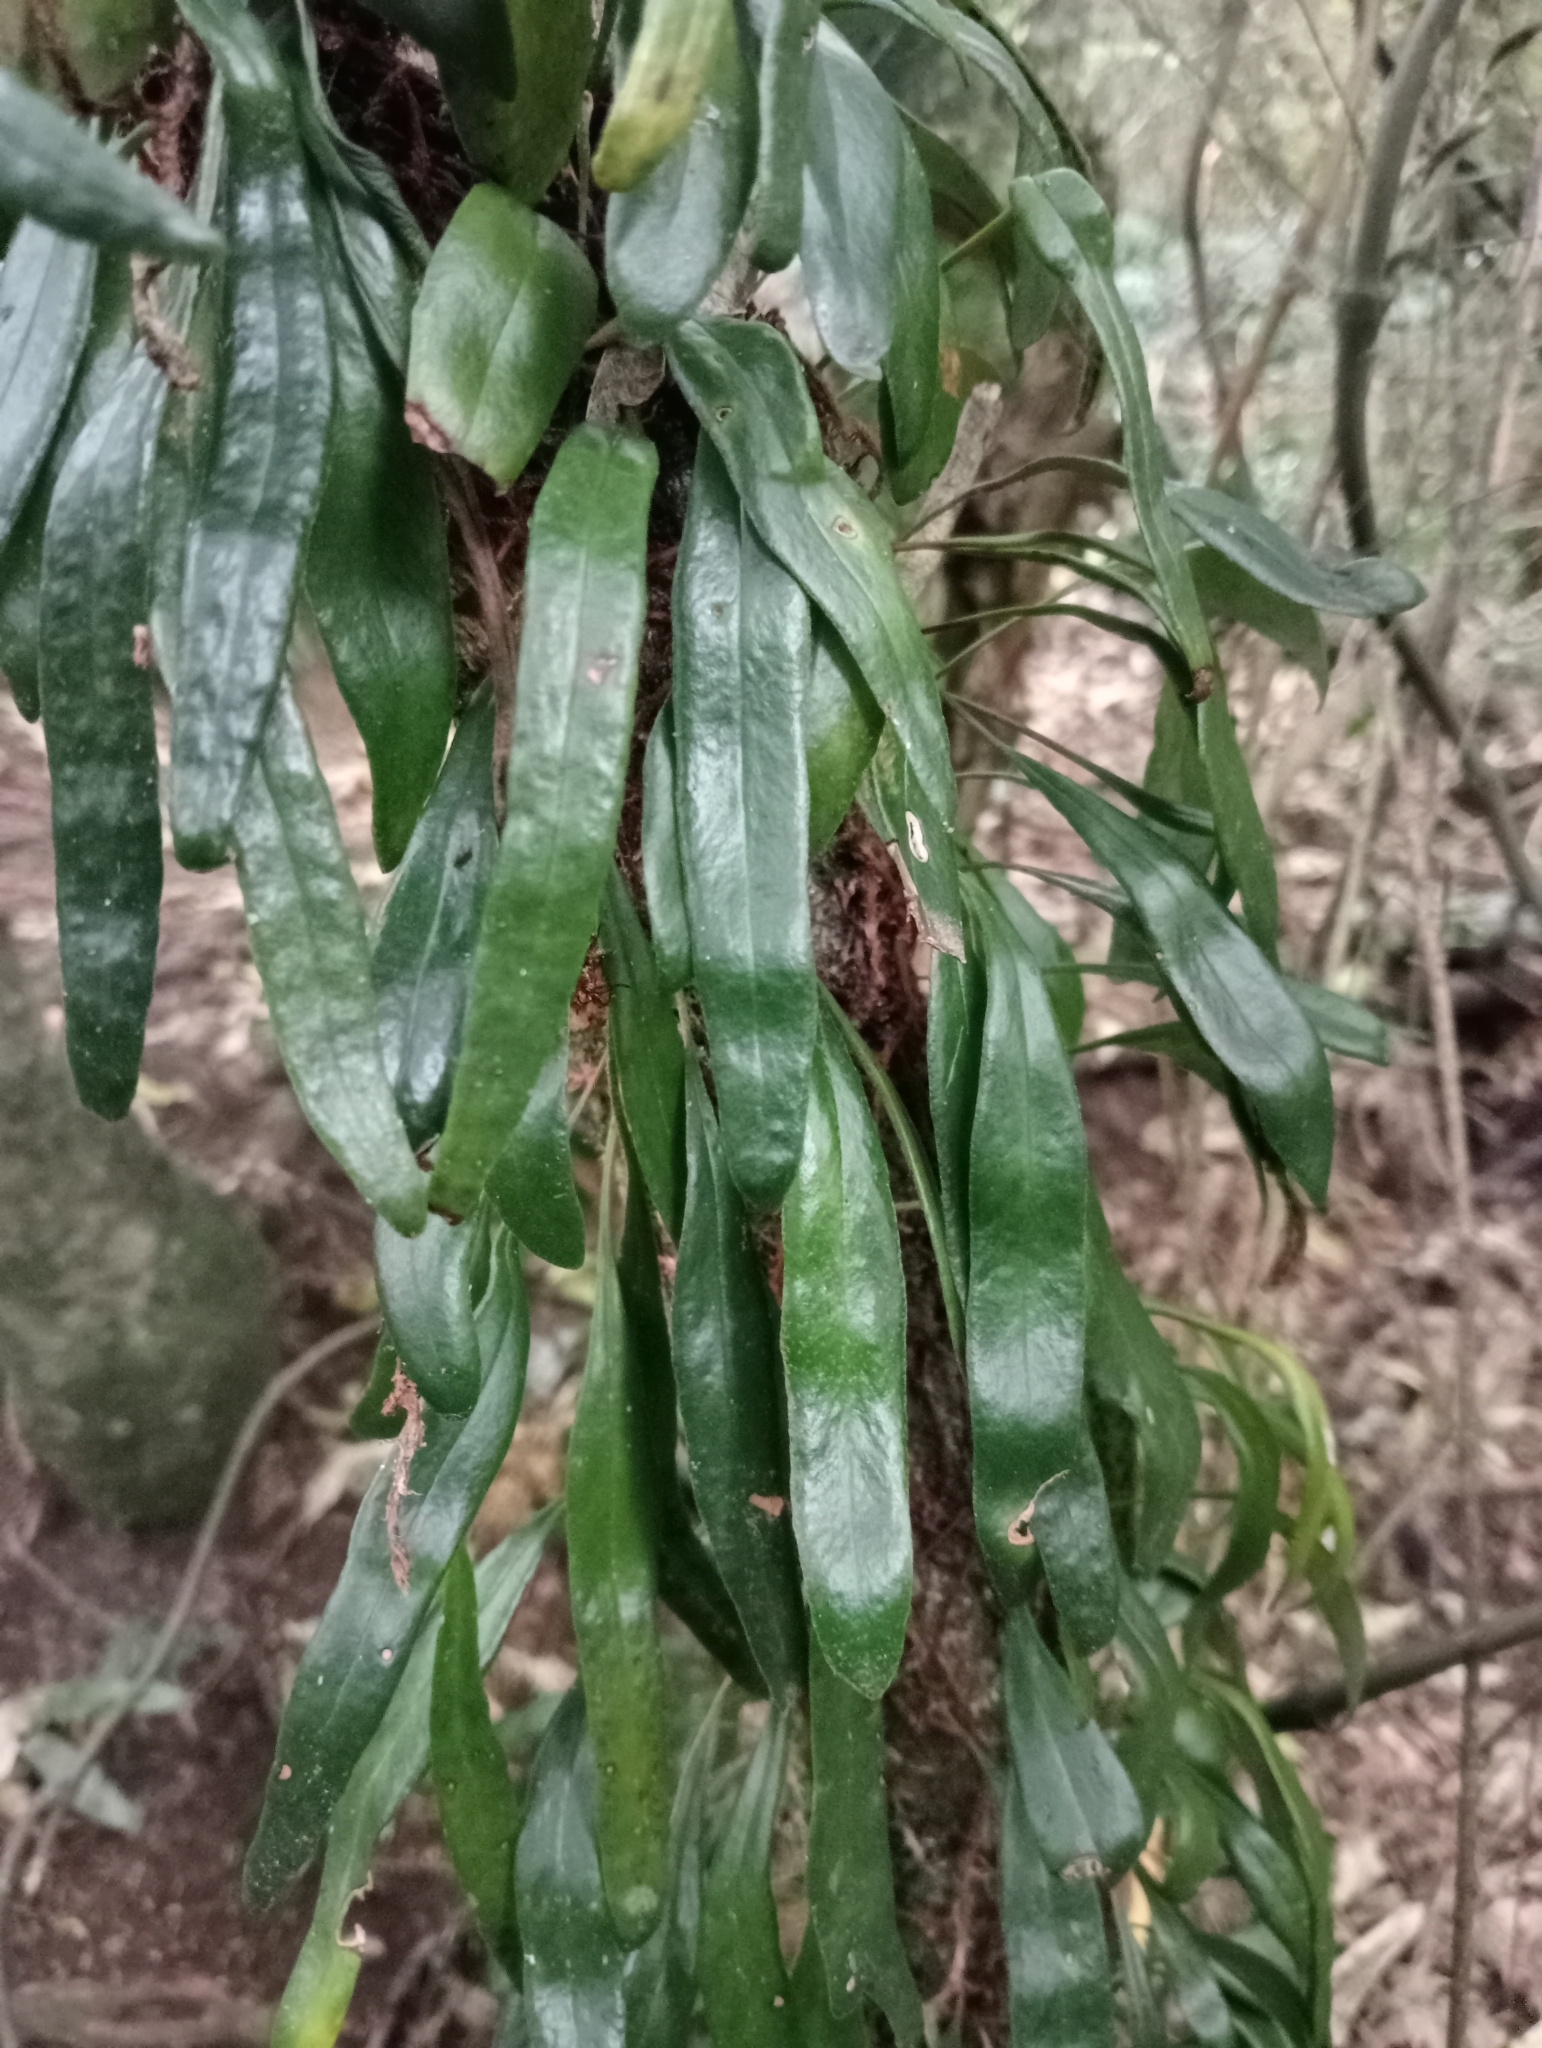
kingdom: Plantae
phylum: Tracheophyta
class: Polypodiopsida
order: Polypodiales
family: Polypodiaceae
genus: Pyrrosia
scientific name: Pyrrosia eleagnifolia
